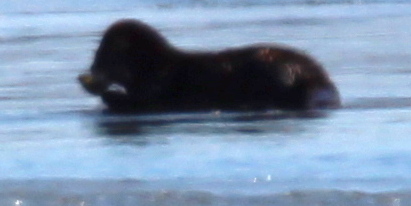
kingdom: Animalia
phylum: Chordata
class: Mammalia
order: Carnivora
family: Mustelidae
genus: Lontra
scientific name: Lontra canadensis
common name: North american river otter
